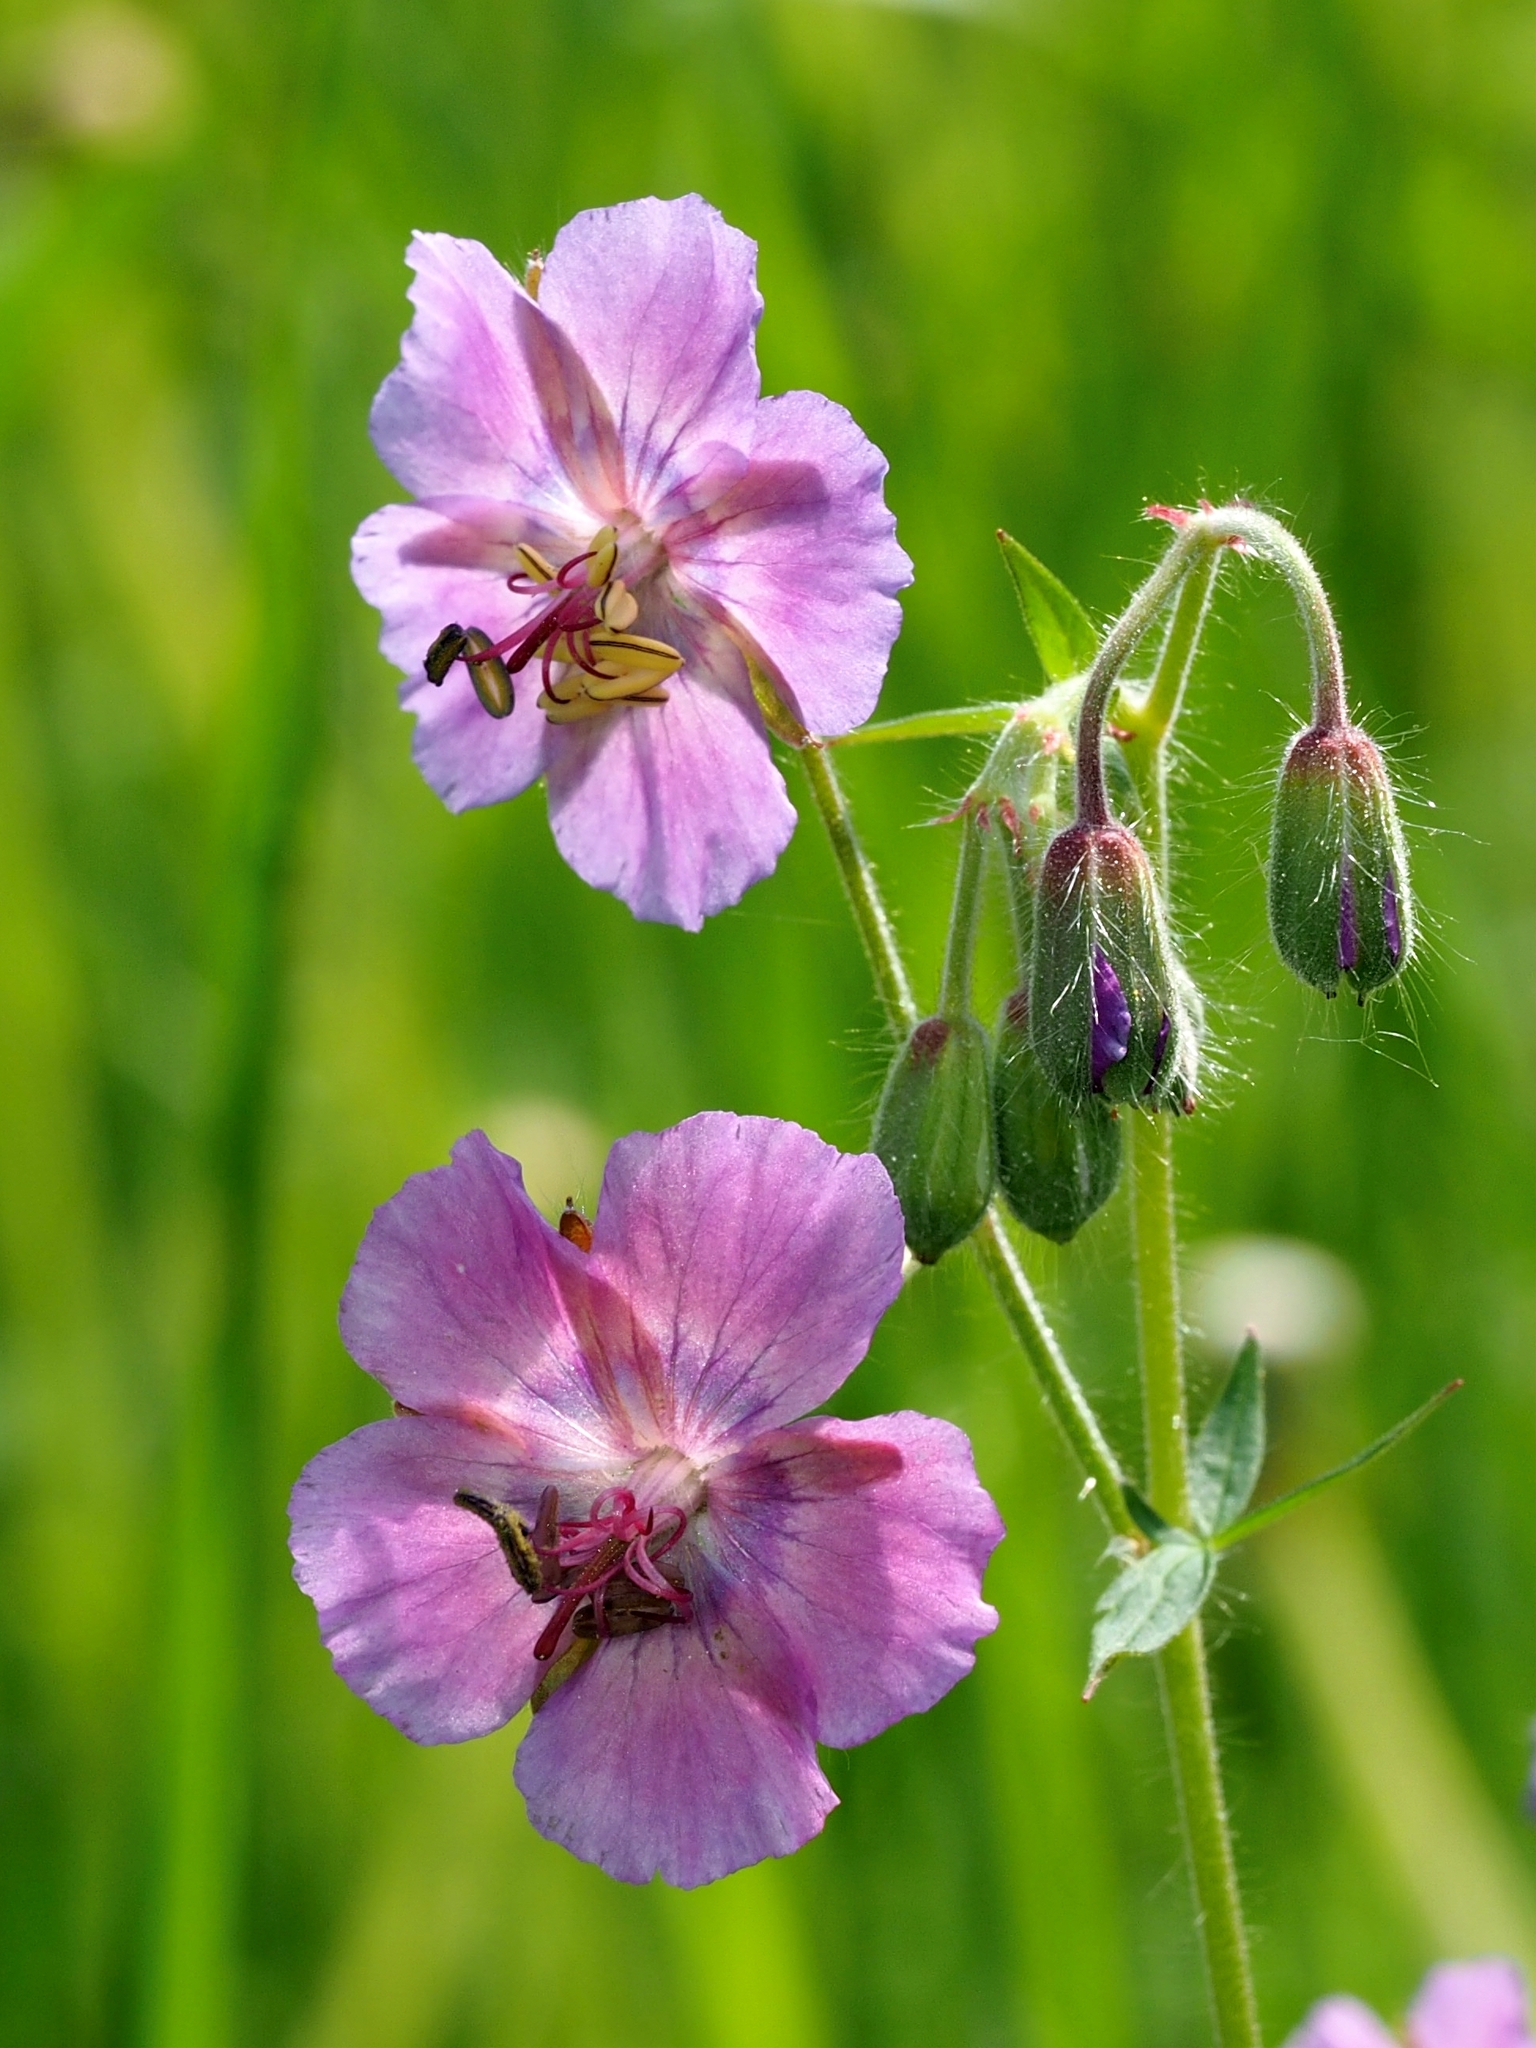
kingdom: Plantae
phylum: Tracheophyta
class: Magnoliopsida
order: Geraniales
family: Geraniaceae
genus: Geranium
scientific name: Geranium phaeum
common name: Dusky crane's-bill
